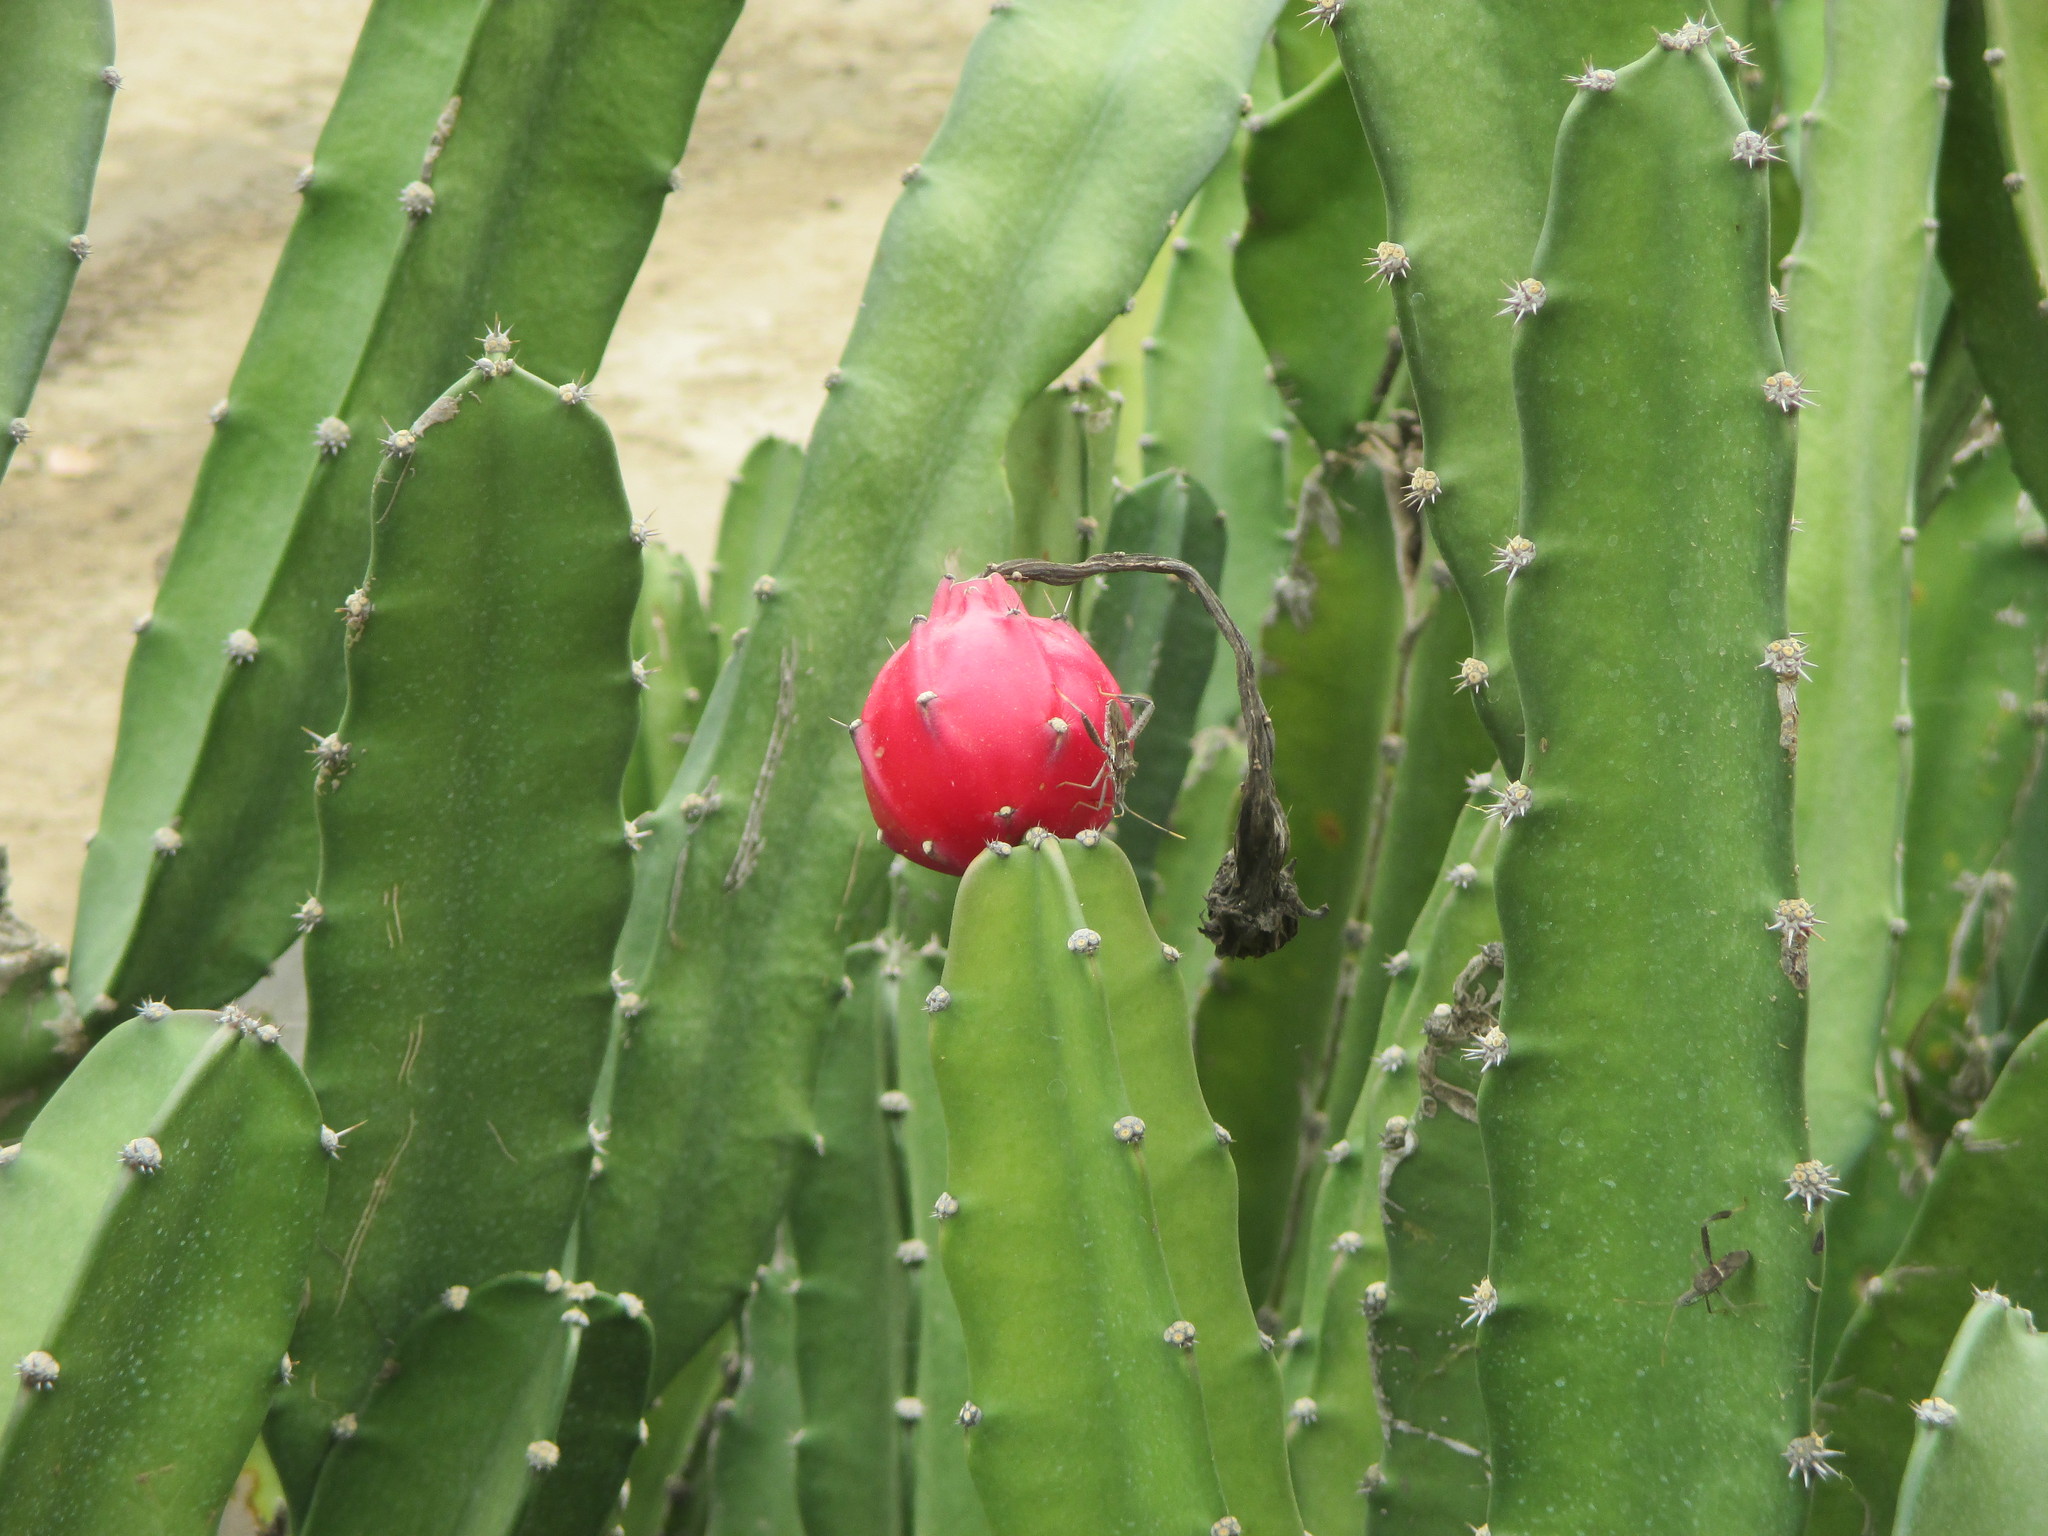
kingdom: Plantae
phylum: Tracheophyta
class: Magnoliopsida
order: Caryophyllales
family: Cactaceae
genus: Acanthocereus
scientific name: Acanthocereus tetragonus
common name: Triangle cactus
